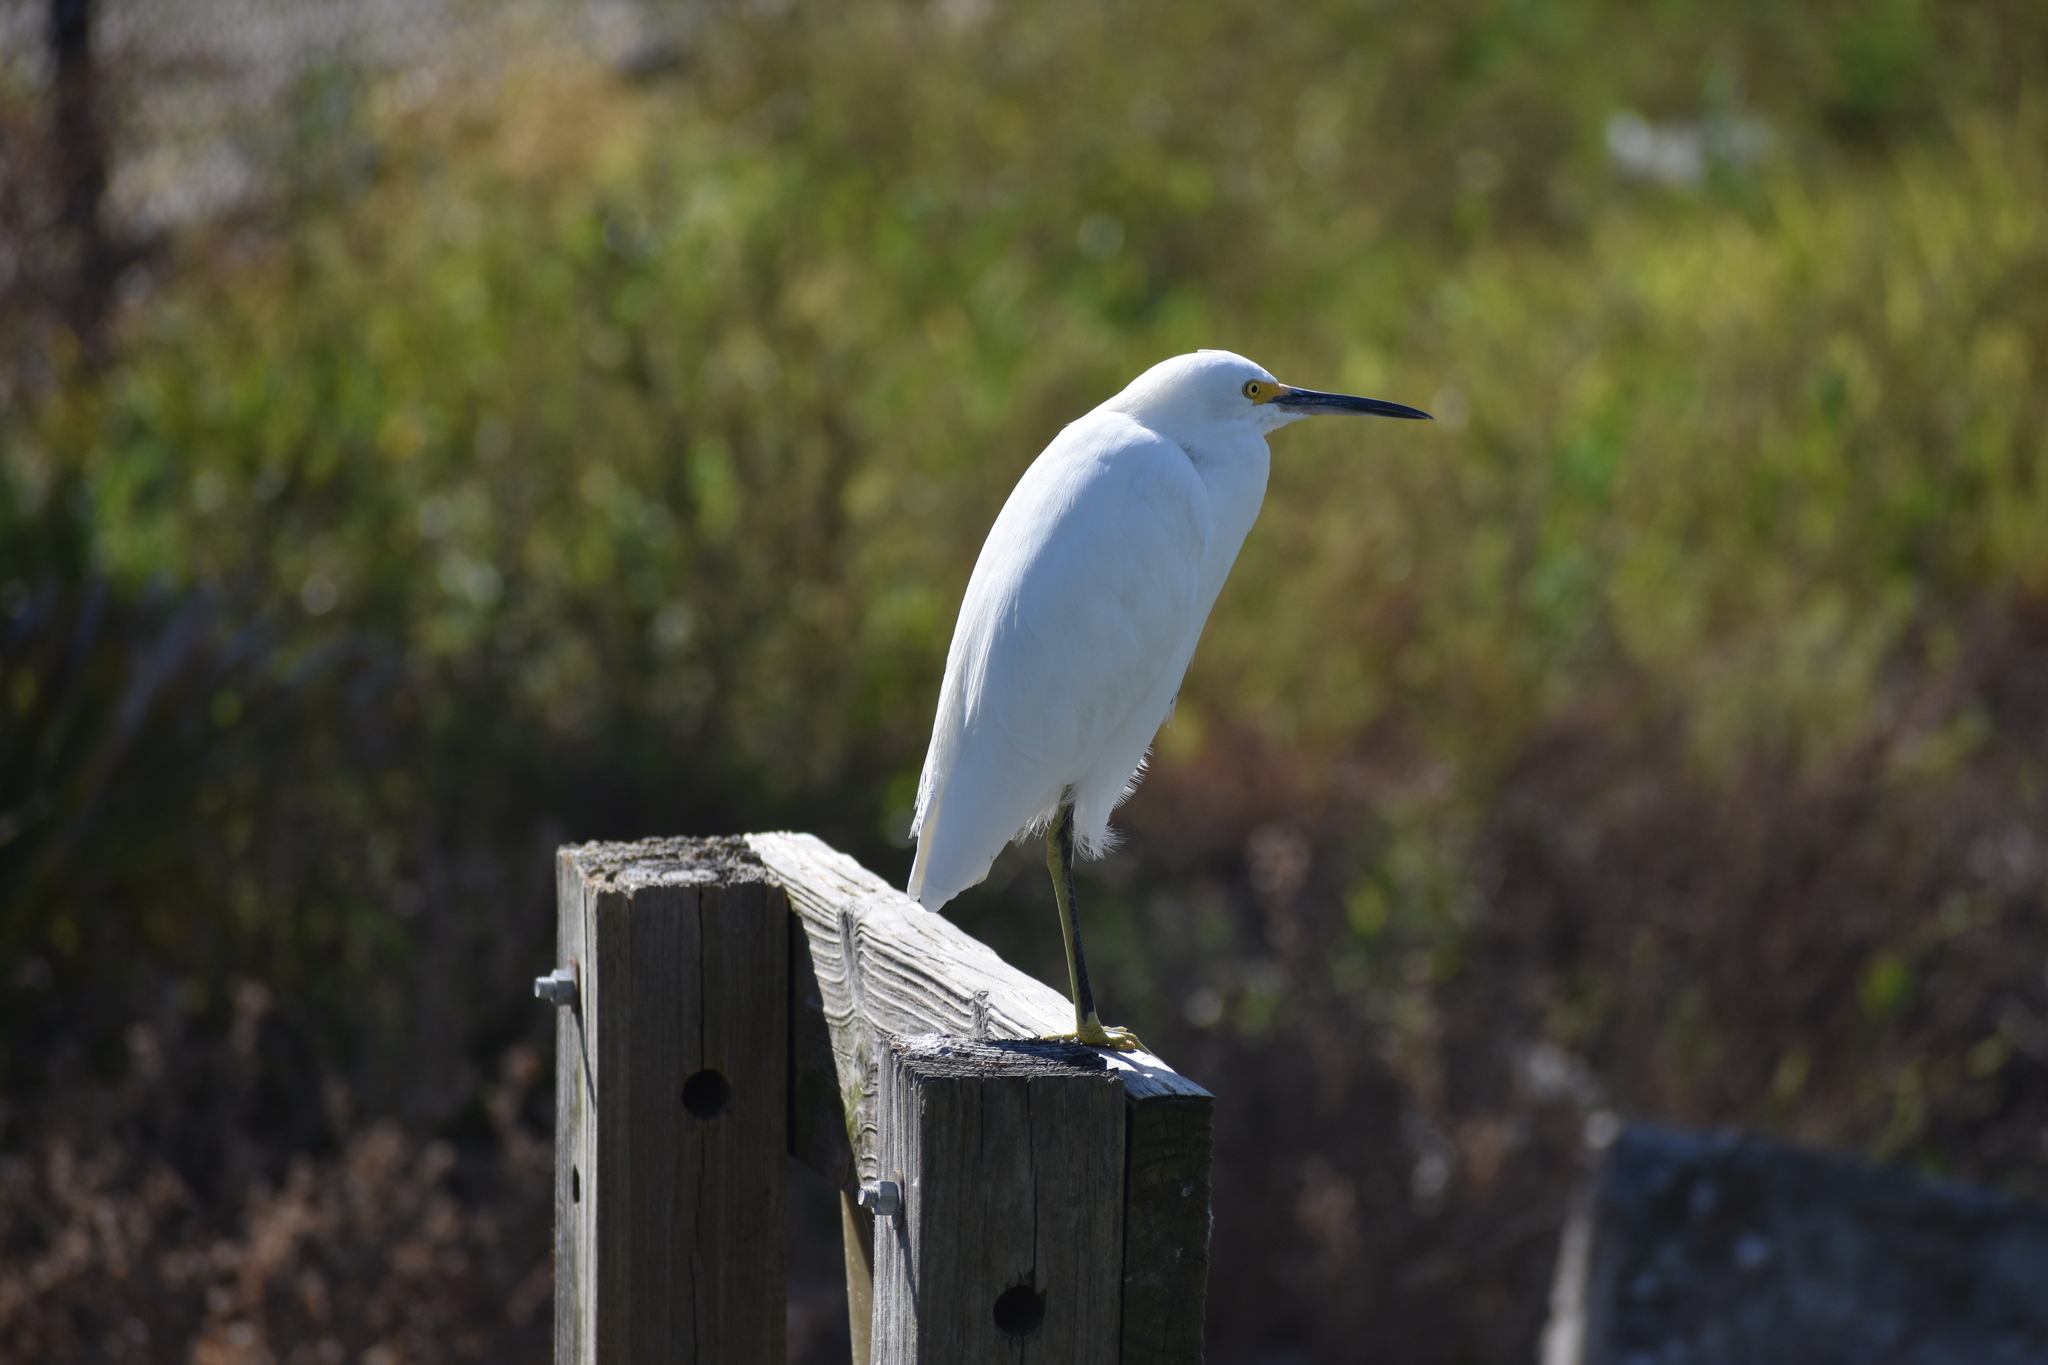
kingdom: Animalia
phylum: Chordata
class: Aves
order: Pelecaniformes
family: Ardeidae
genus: Egretta
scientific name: Egretta thula
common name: Snowy egret
